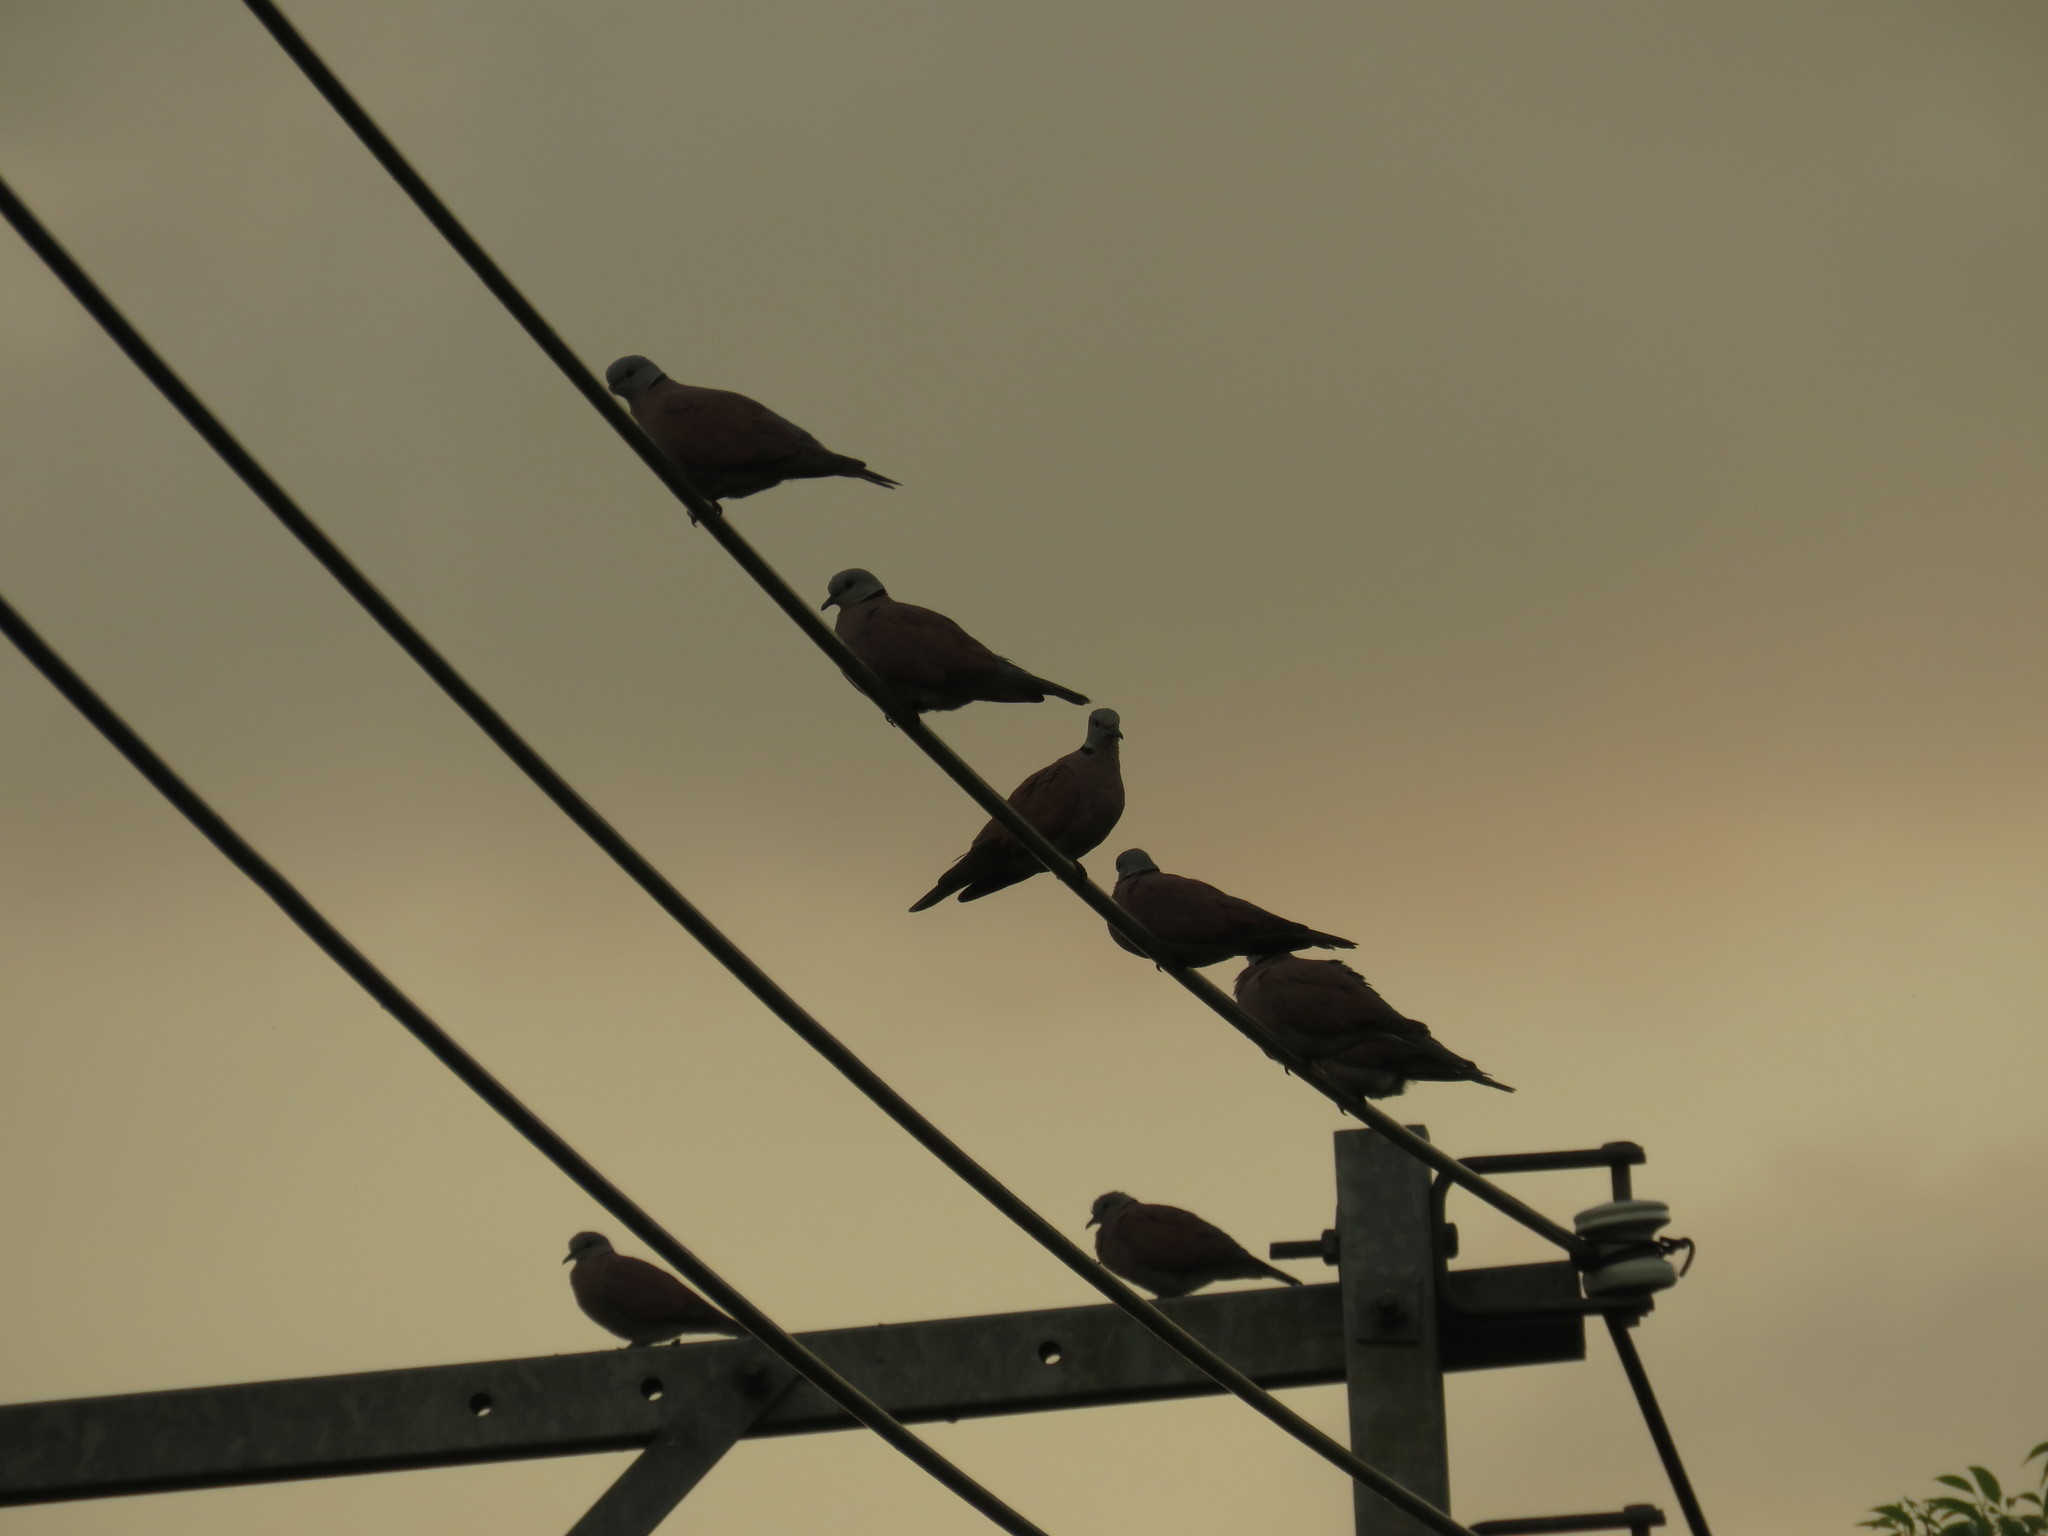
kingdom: Animalia
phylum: Chordata
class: Aves
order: Columbiformes
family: Columbidae
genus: Streptopelia
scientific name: Streptopelia tranquebarica
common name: Red turtle dove
